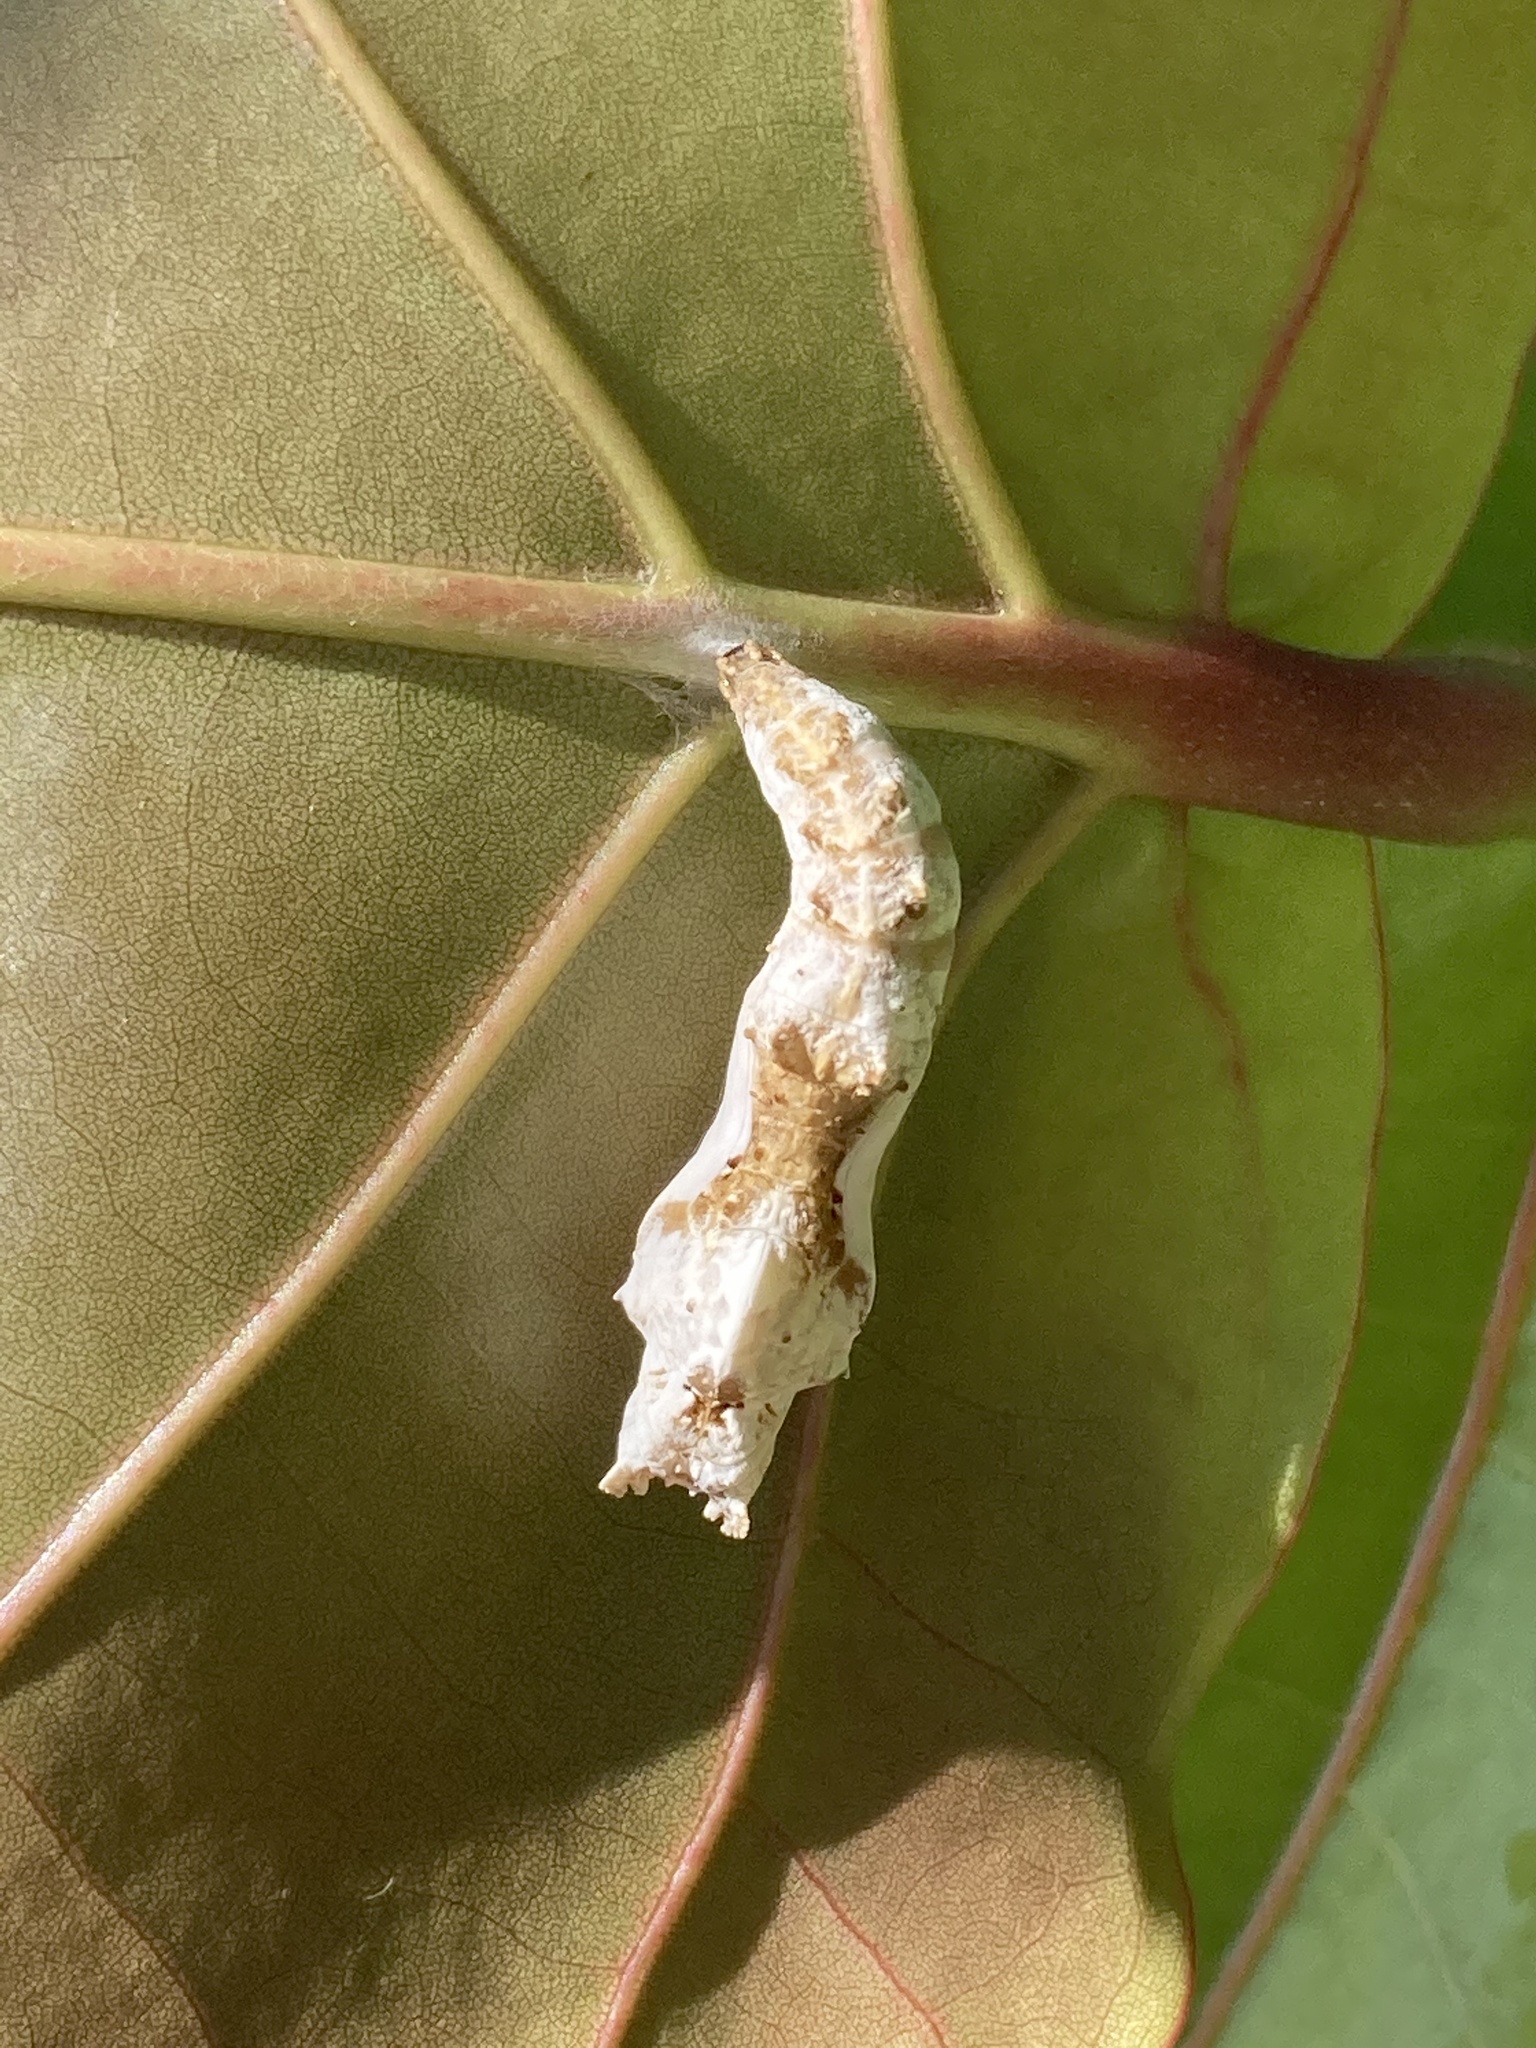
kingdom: Animalia
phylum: Arthropoda
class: Insecta
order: Lepidoptera
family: Nymphalidae
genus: Dione
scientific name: Dione vanillae
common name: Gulf fritillary
